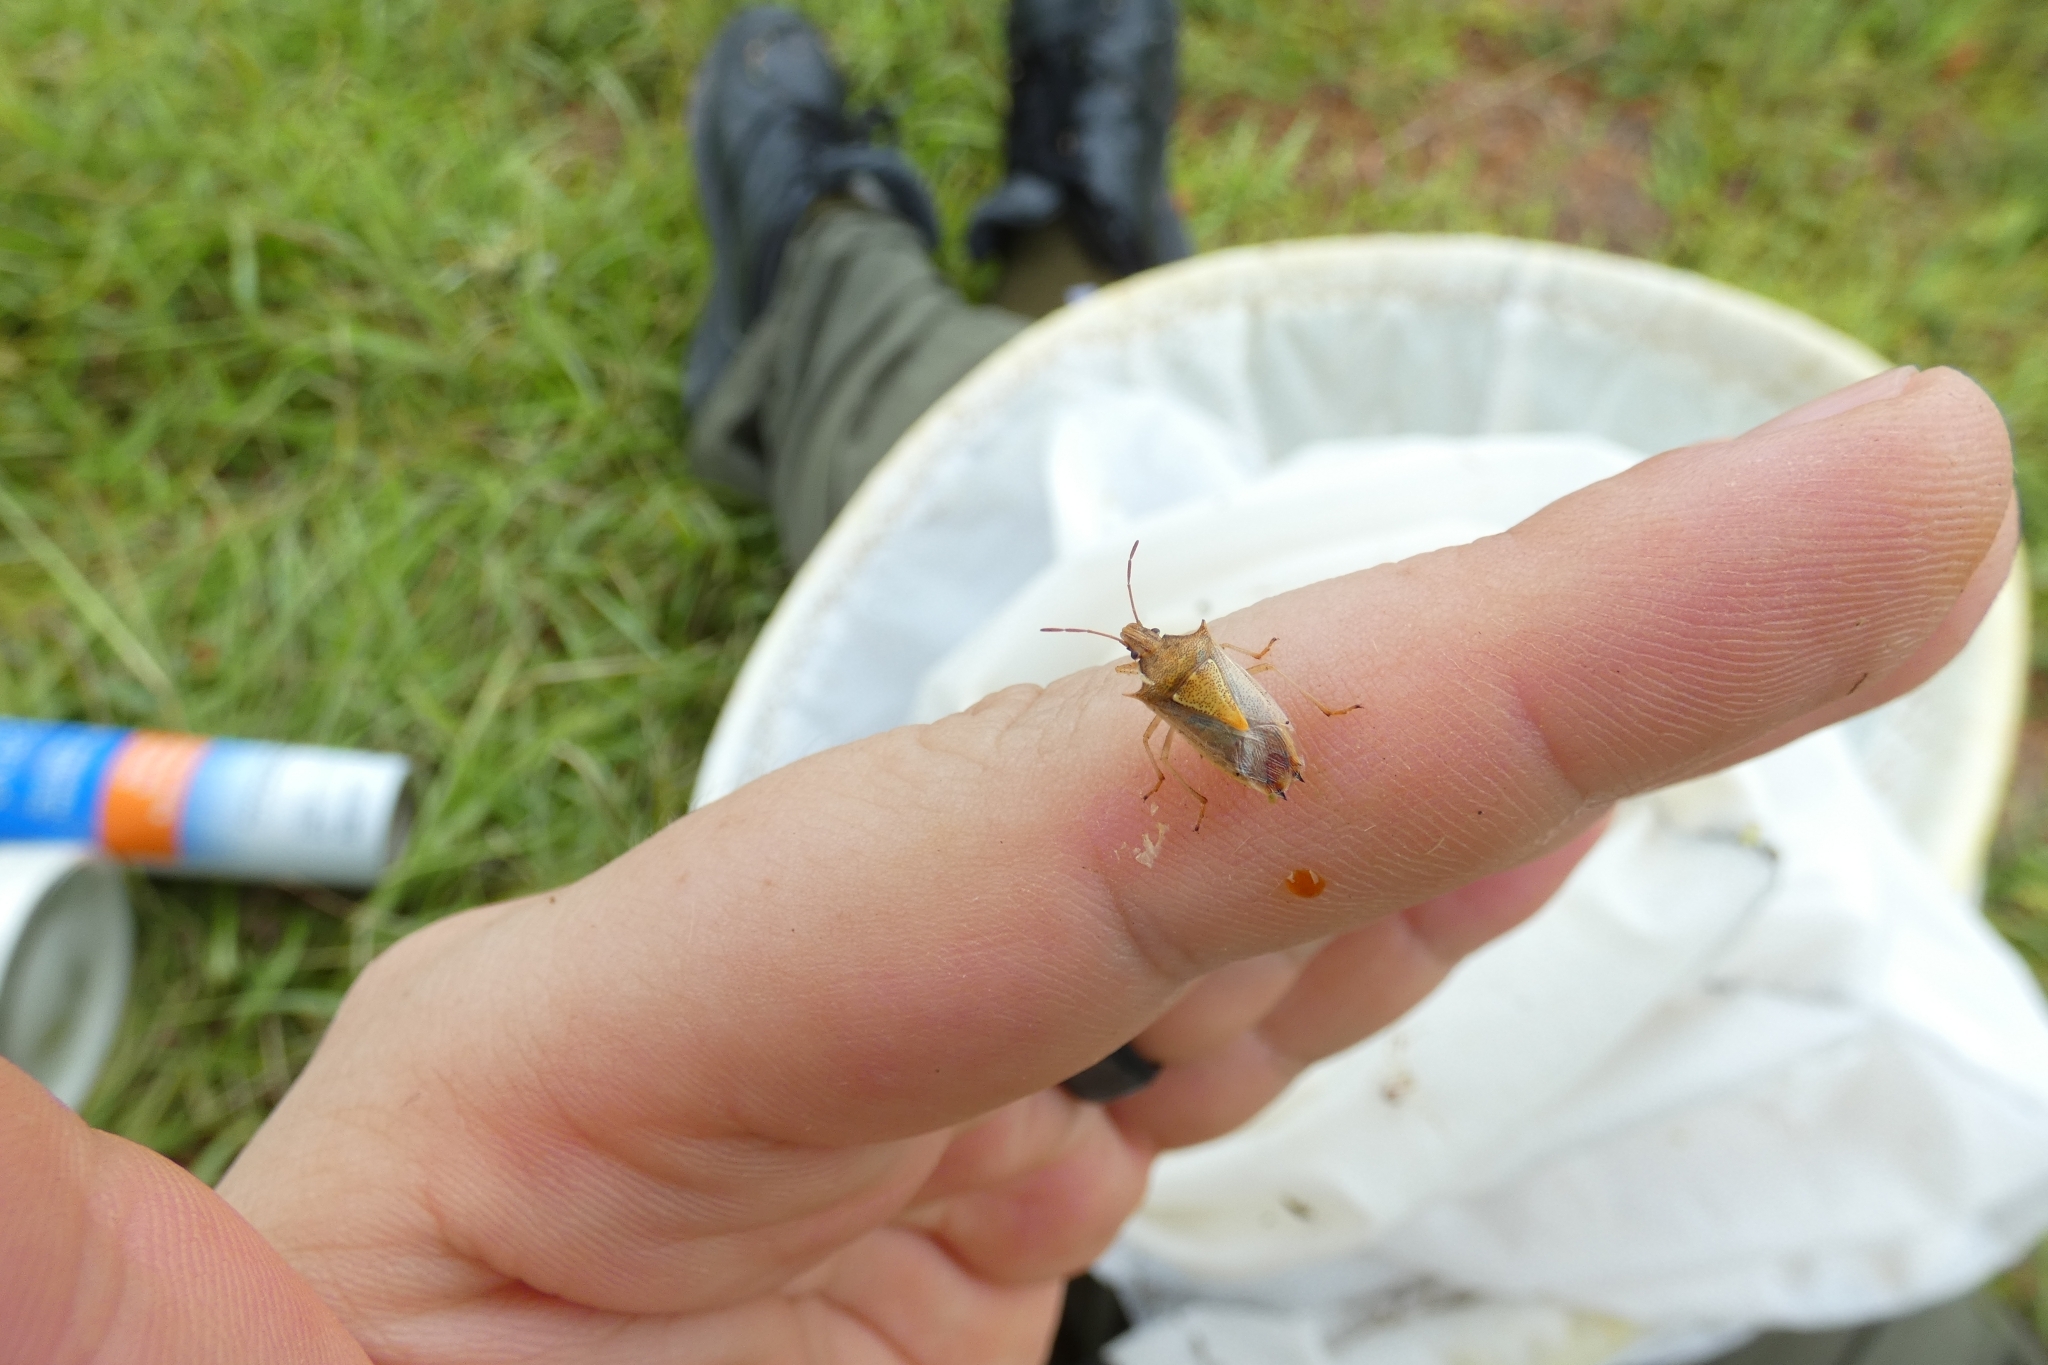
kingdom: Animalia
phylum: Arthropoda
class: Insecta
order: Hemiptera
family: Pentatomidae
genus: Oebalus
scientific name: Oebalus pugnax
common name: Rice stink bug
